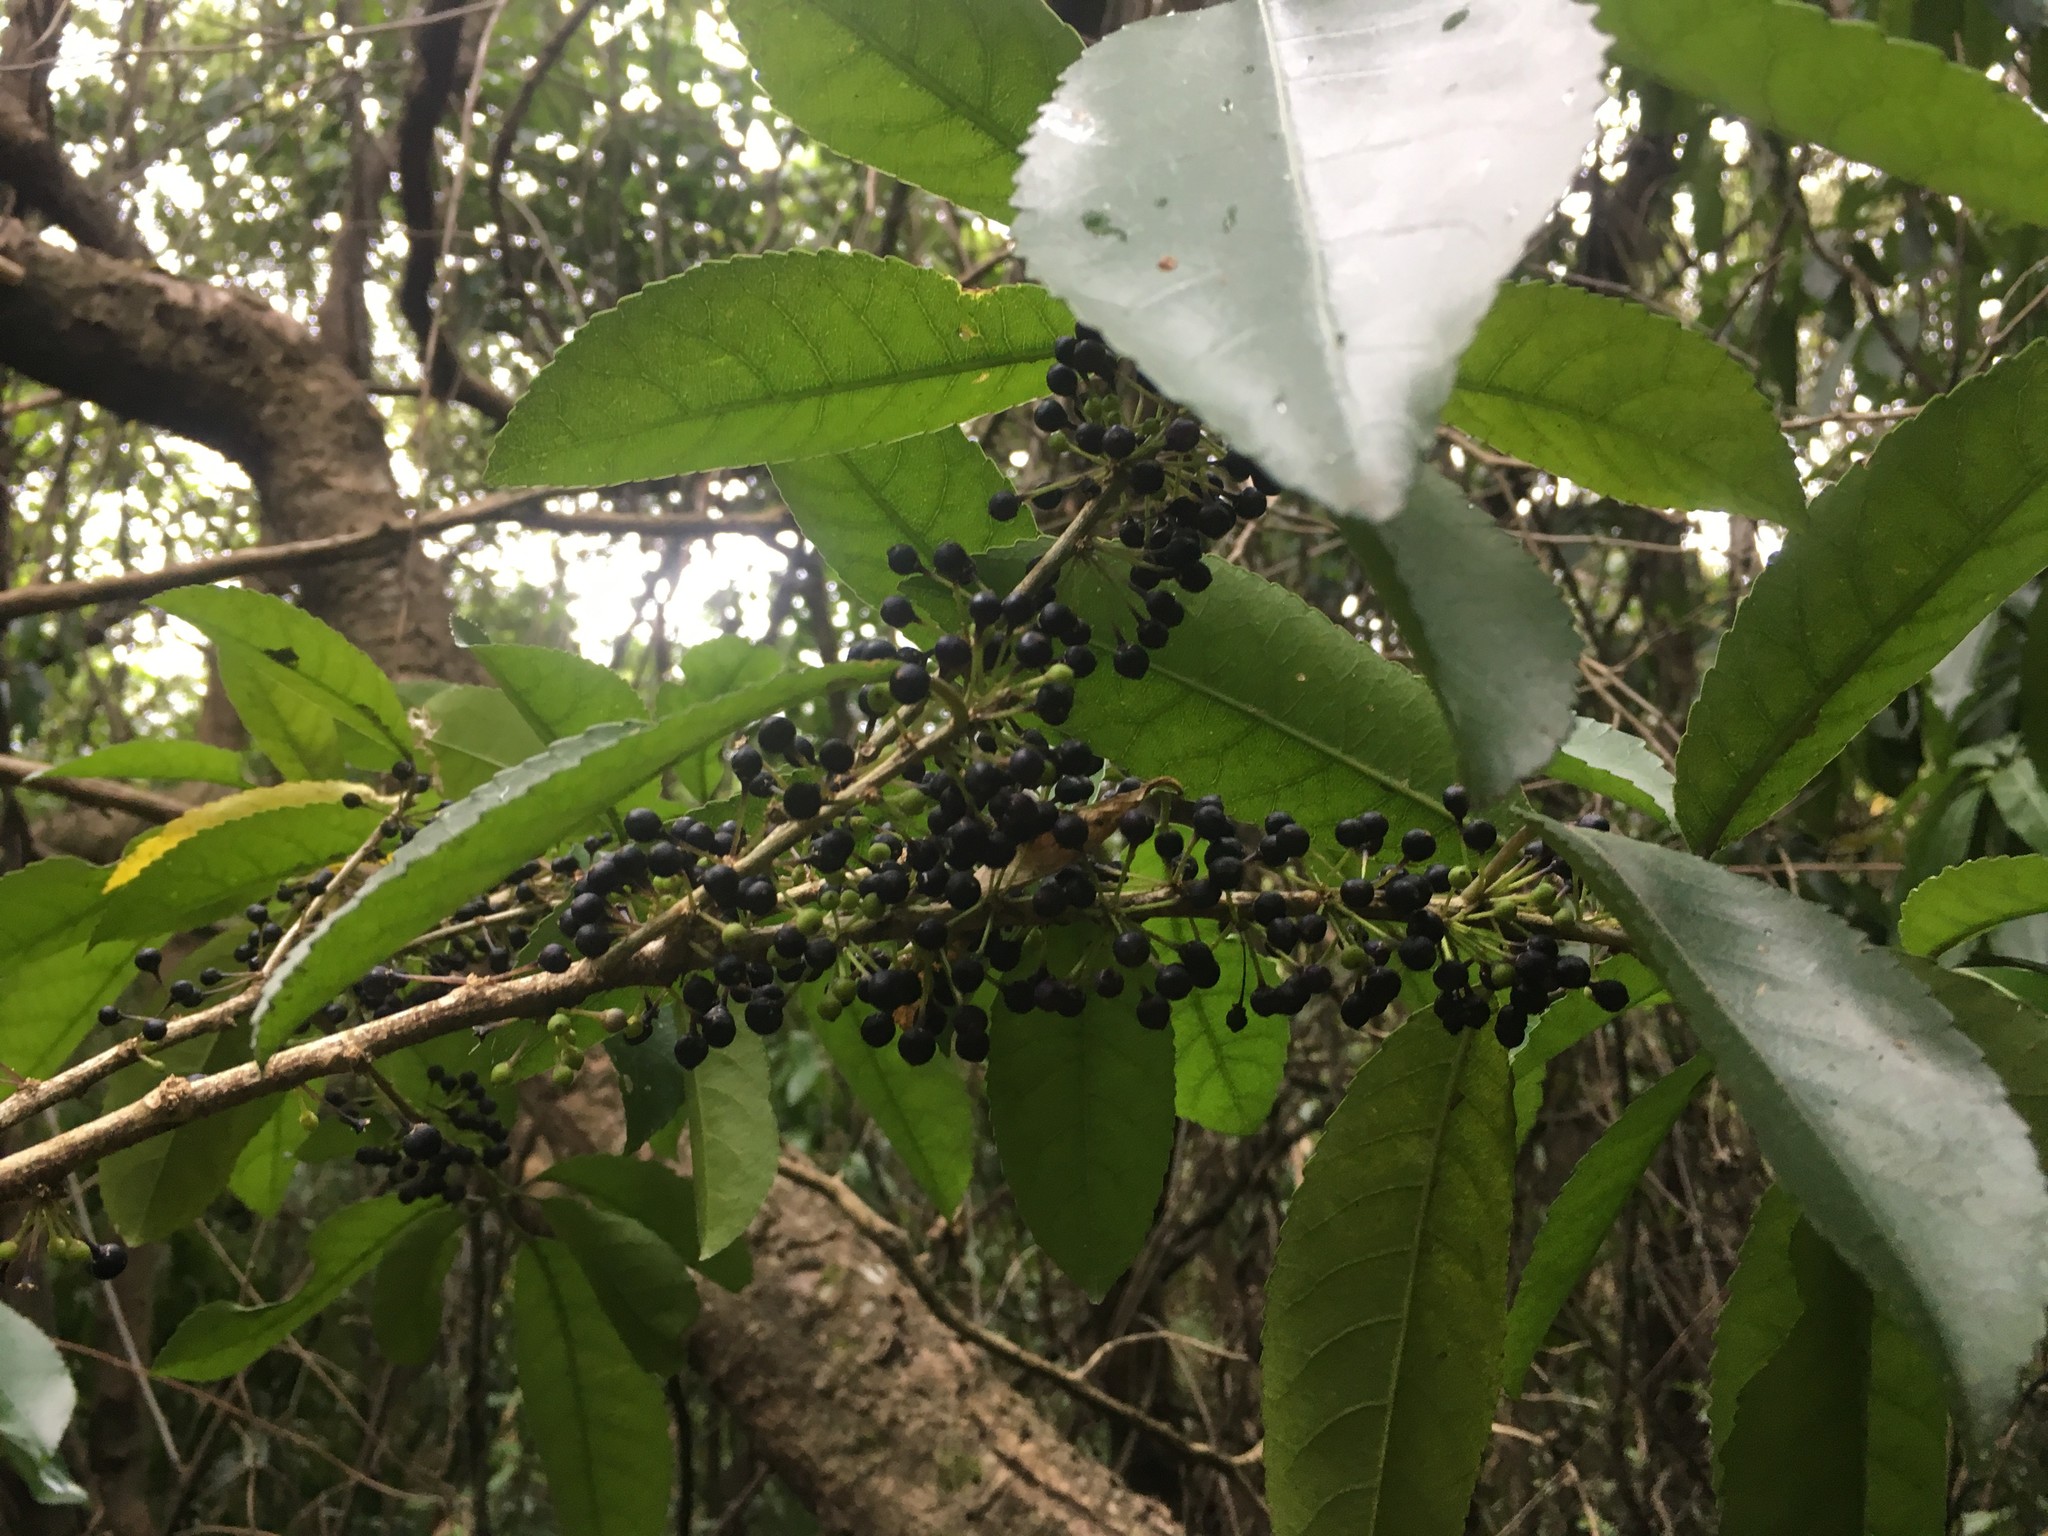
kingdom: Plantae
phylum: Tracheophyta
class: Magnoliopsida
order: Malpighiales
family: Violaceae
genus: Melicytus
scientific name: Melicytus ramiflorus
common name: Mahoe
